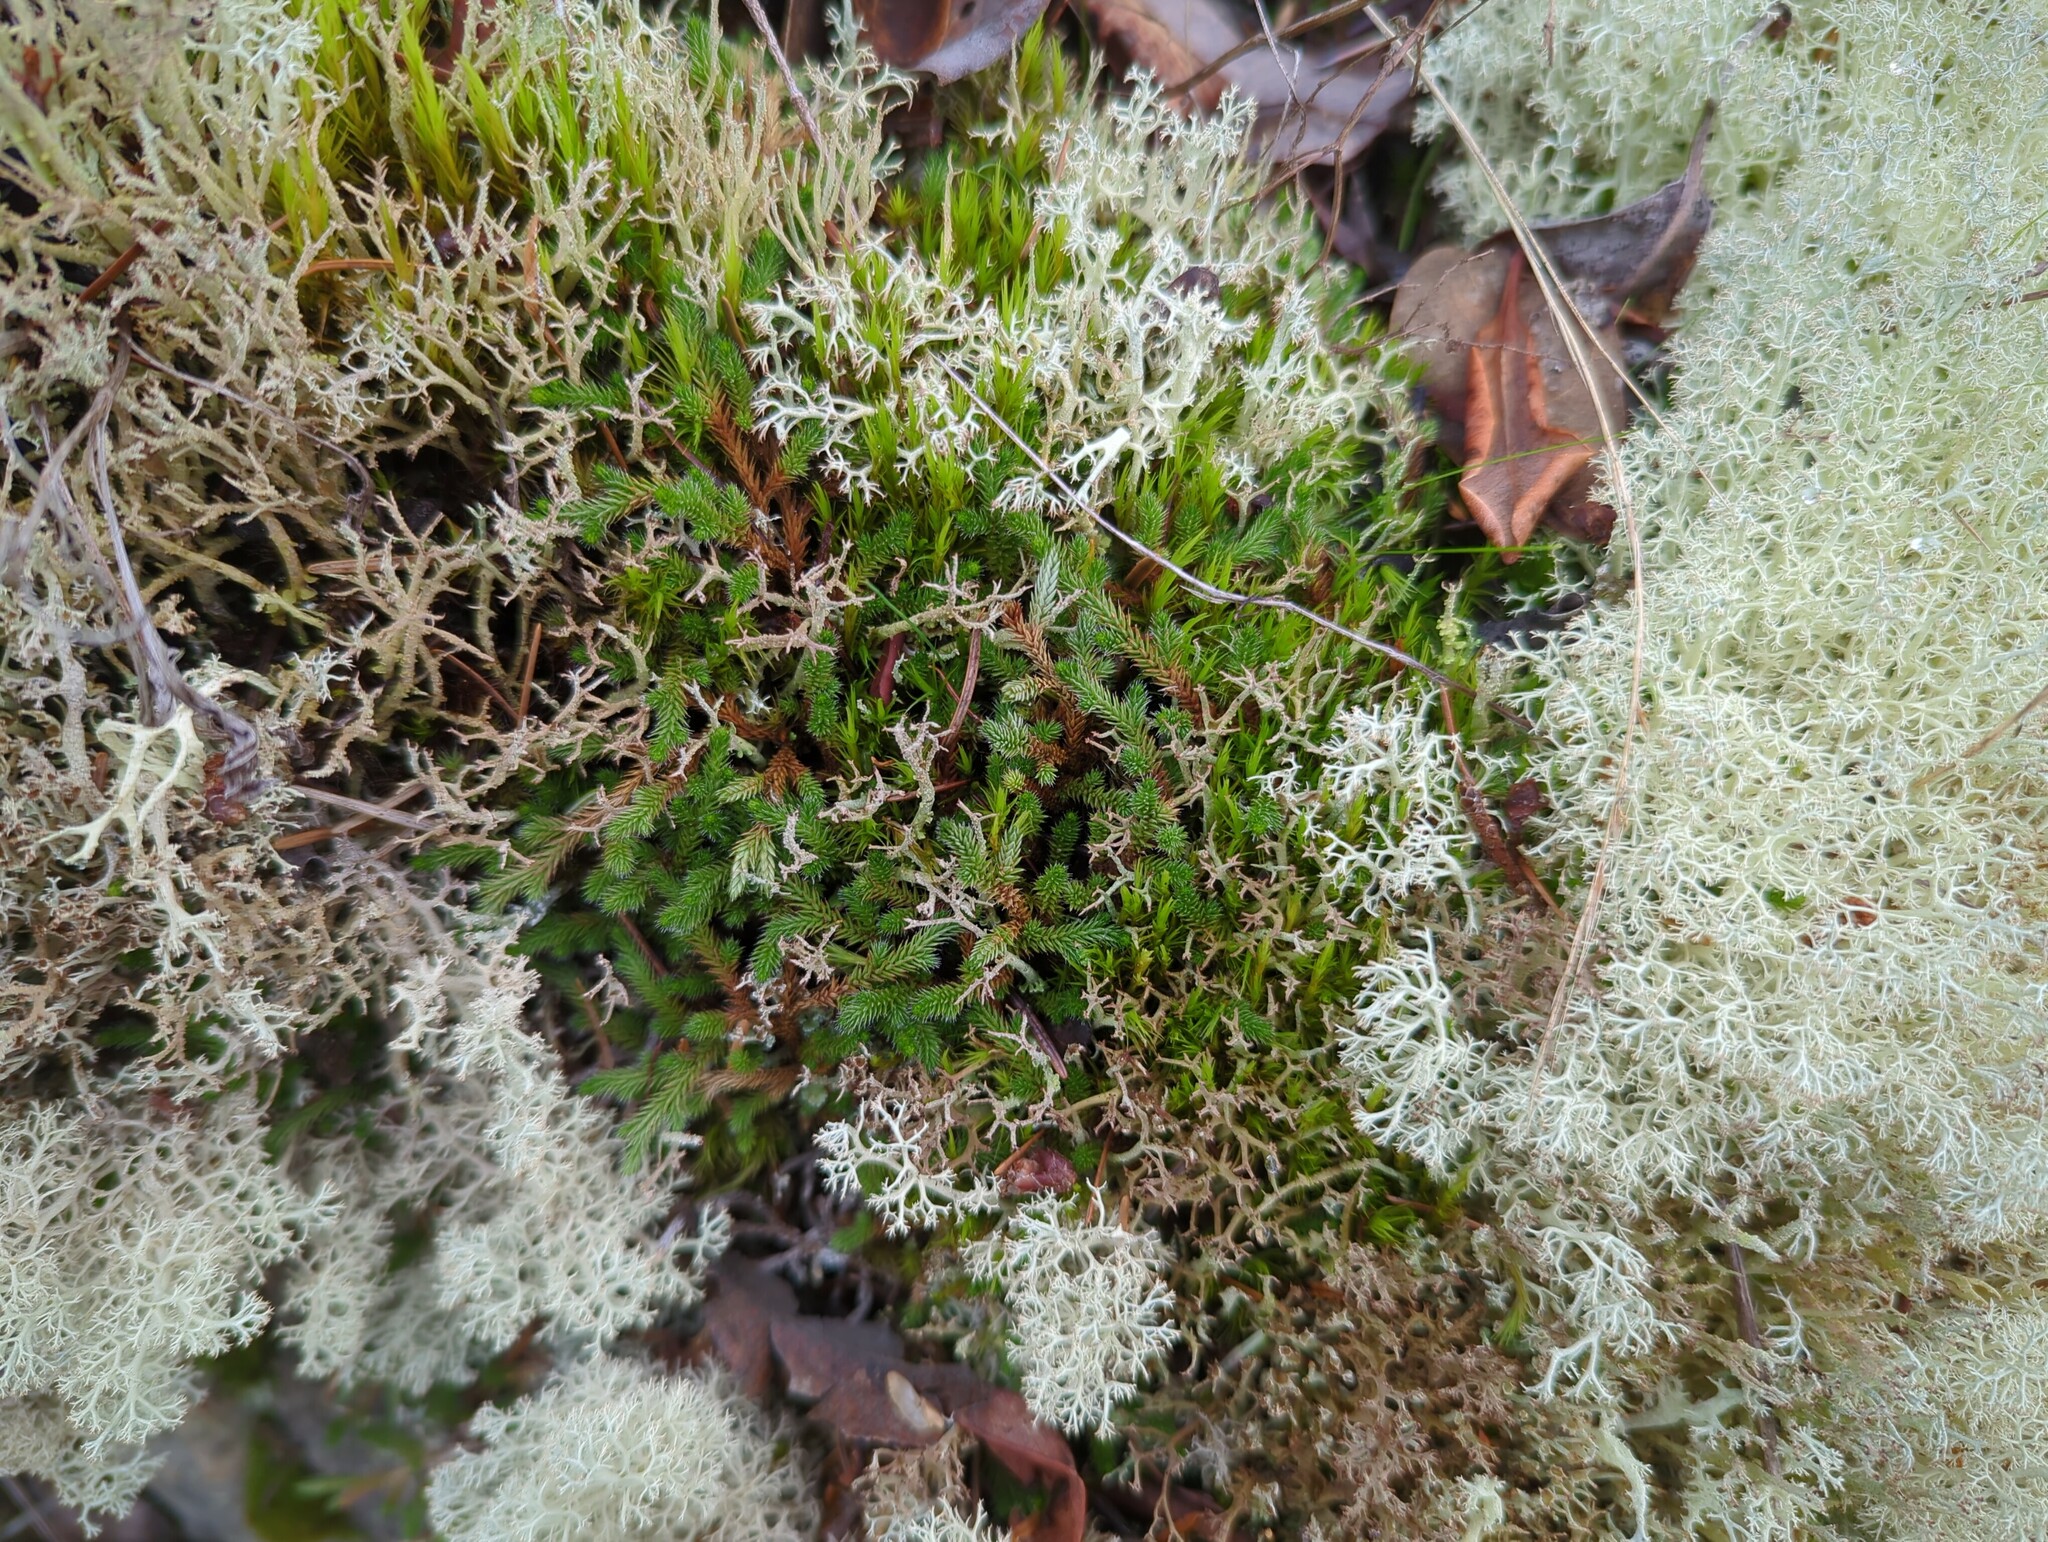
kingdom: Plantae
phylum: Tracheophyta
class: Lycopodiopsida
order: Selaginellales
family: Selaginellaceae
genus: Selaginella
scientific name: Selaginella wallacei
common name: Wallace's selaginella
